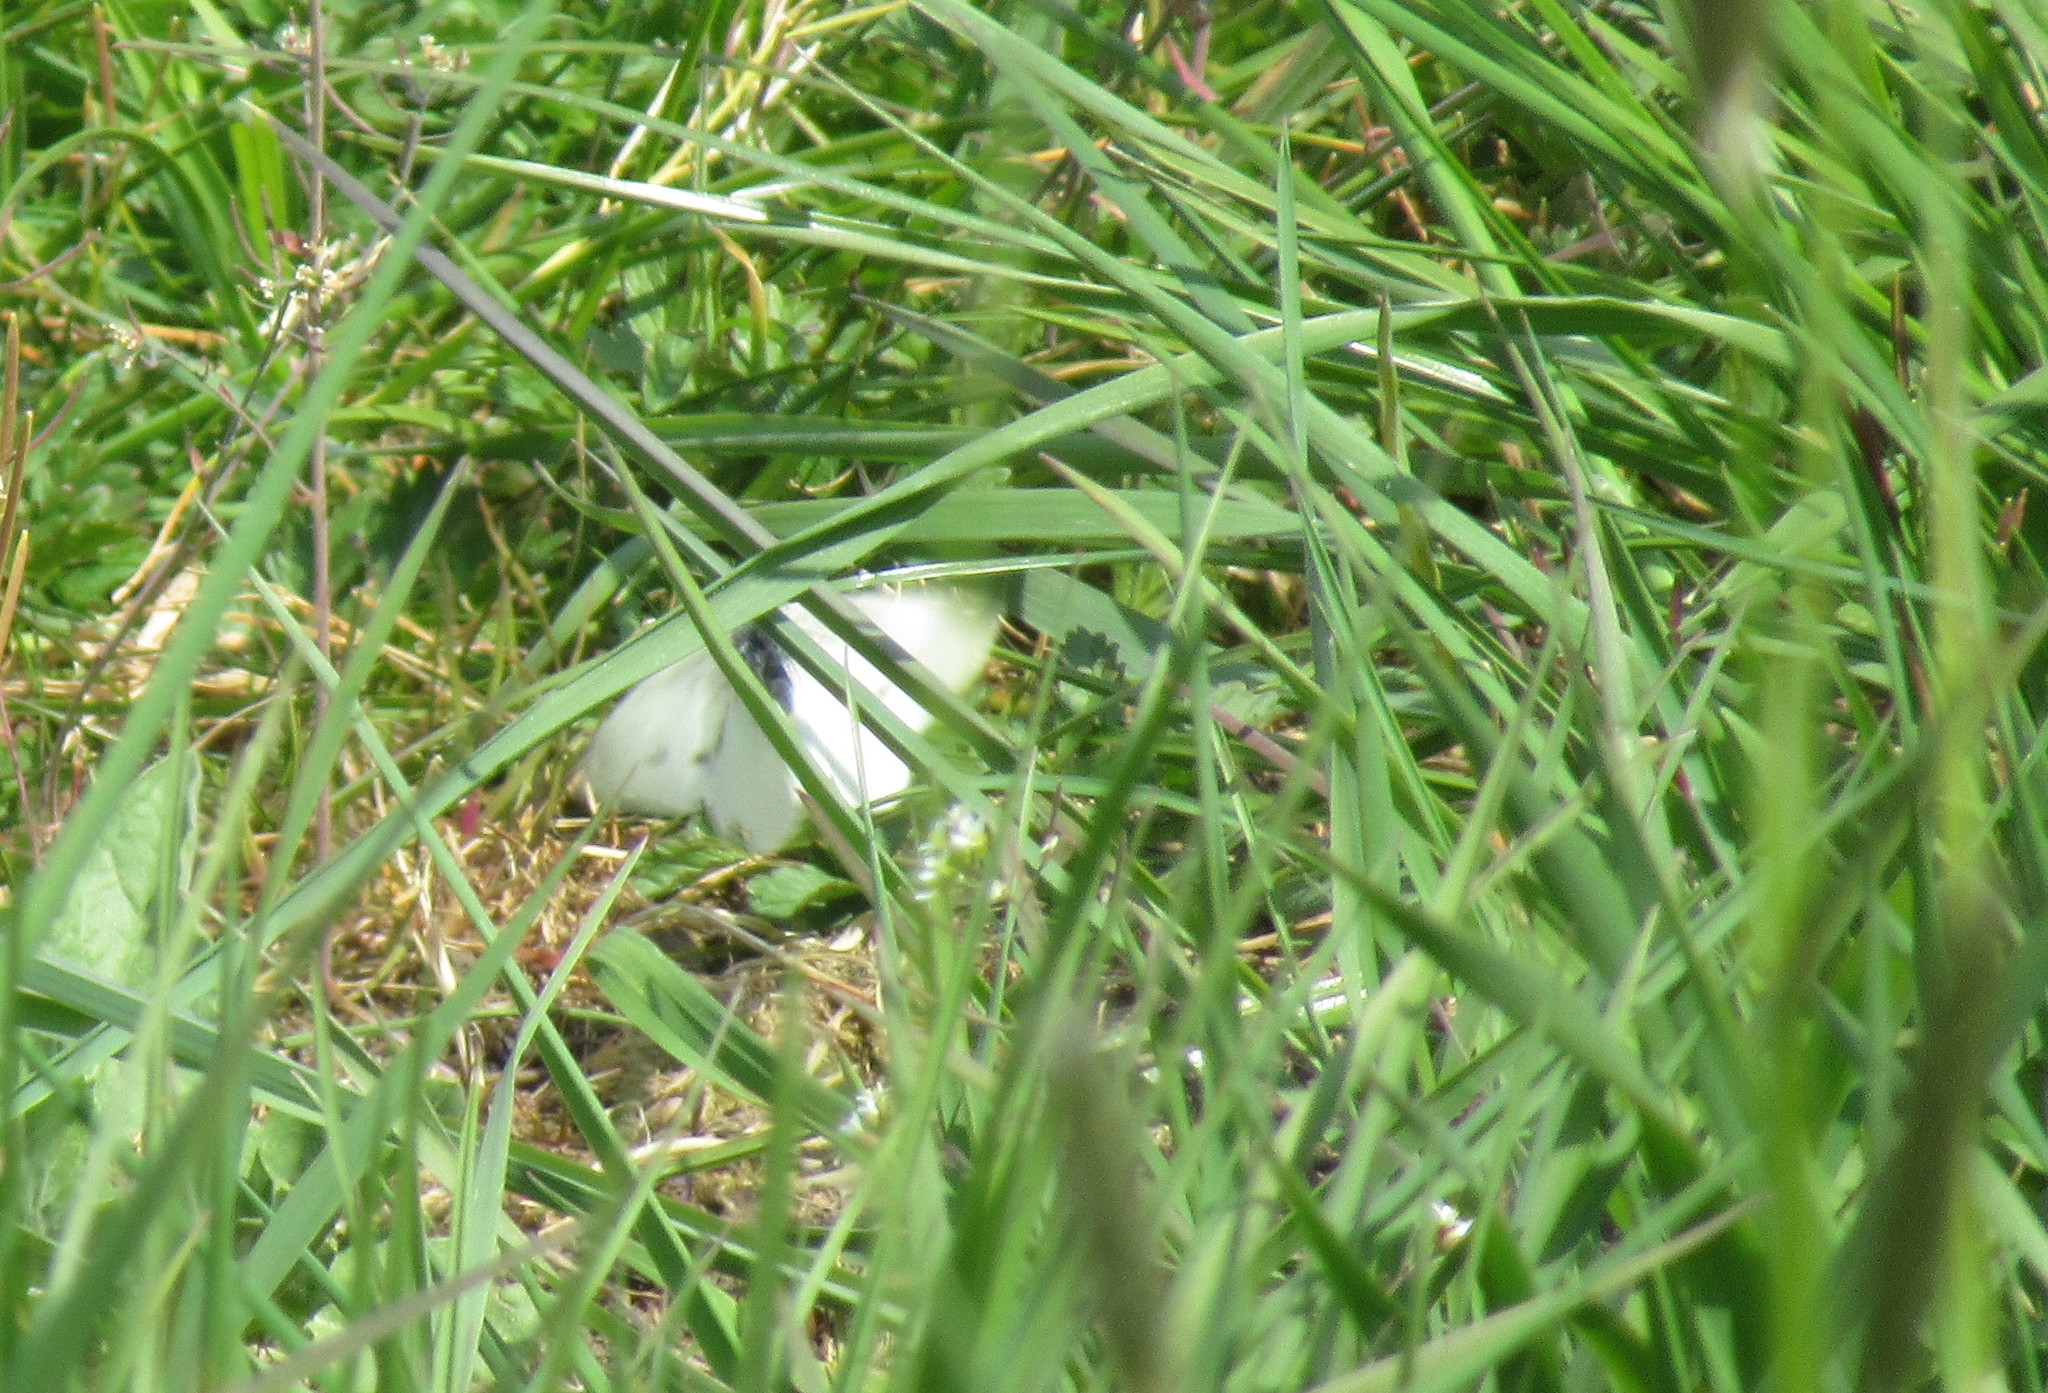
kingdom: Animalia
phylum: Arthropoda
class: Insecta
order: Lepidoptera
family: Pieridae
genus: Pieris
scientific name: Pieris rapae
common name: Small white
